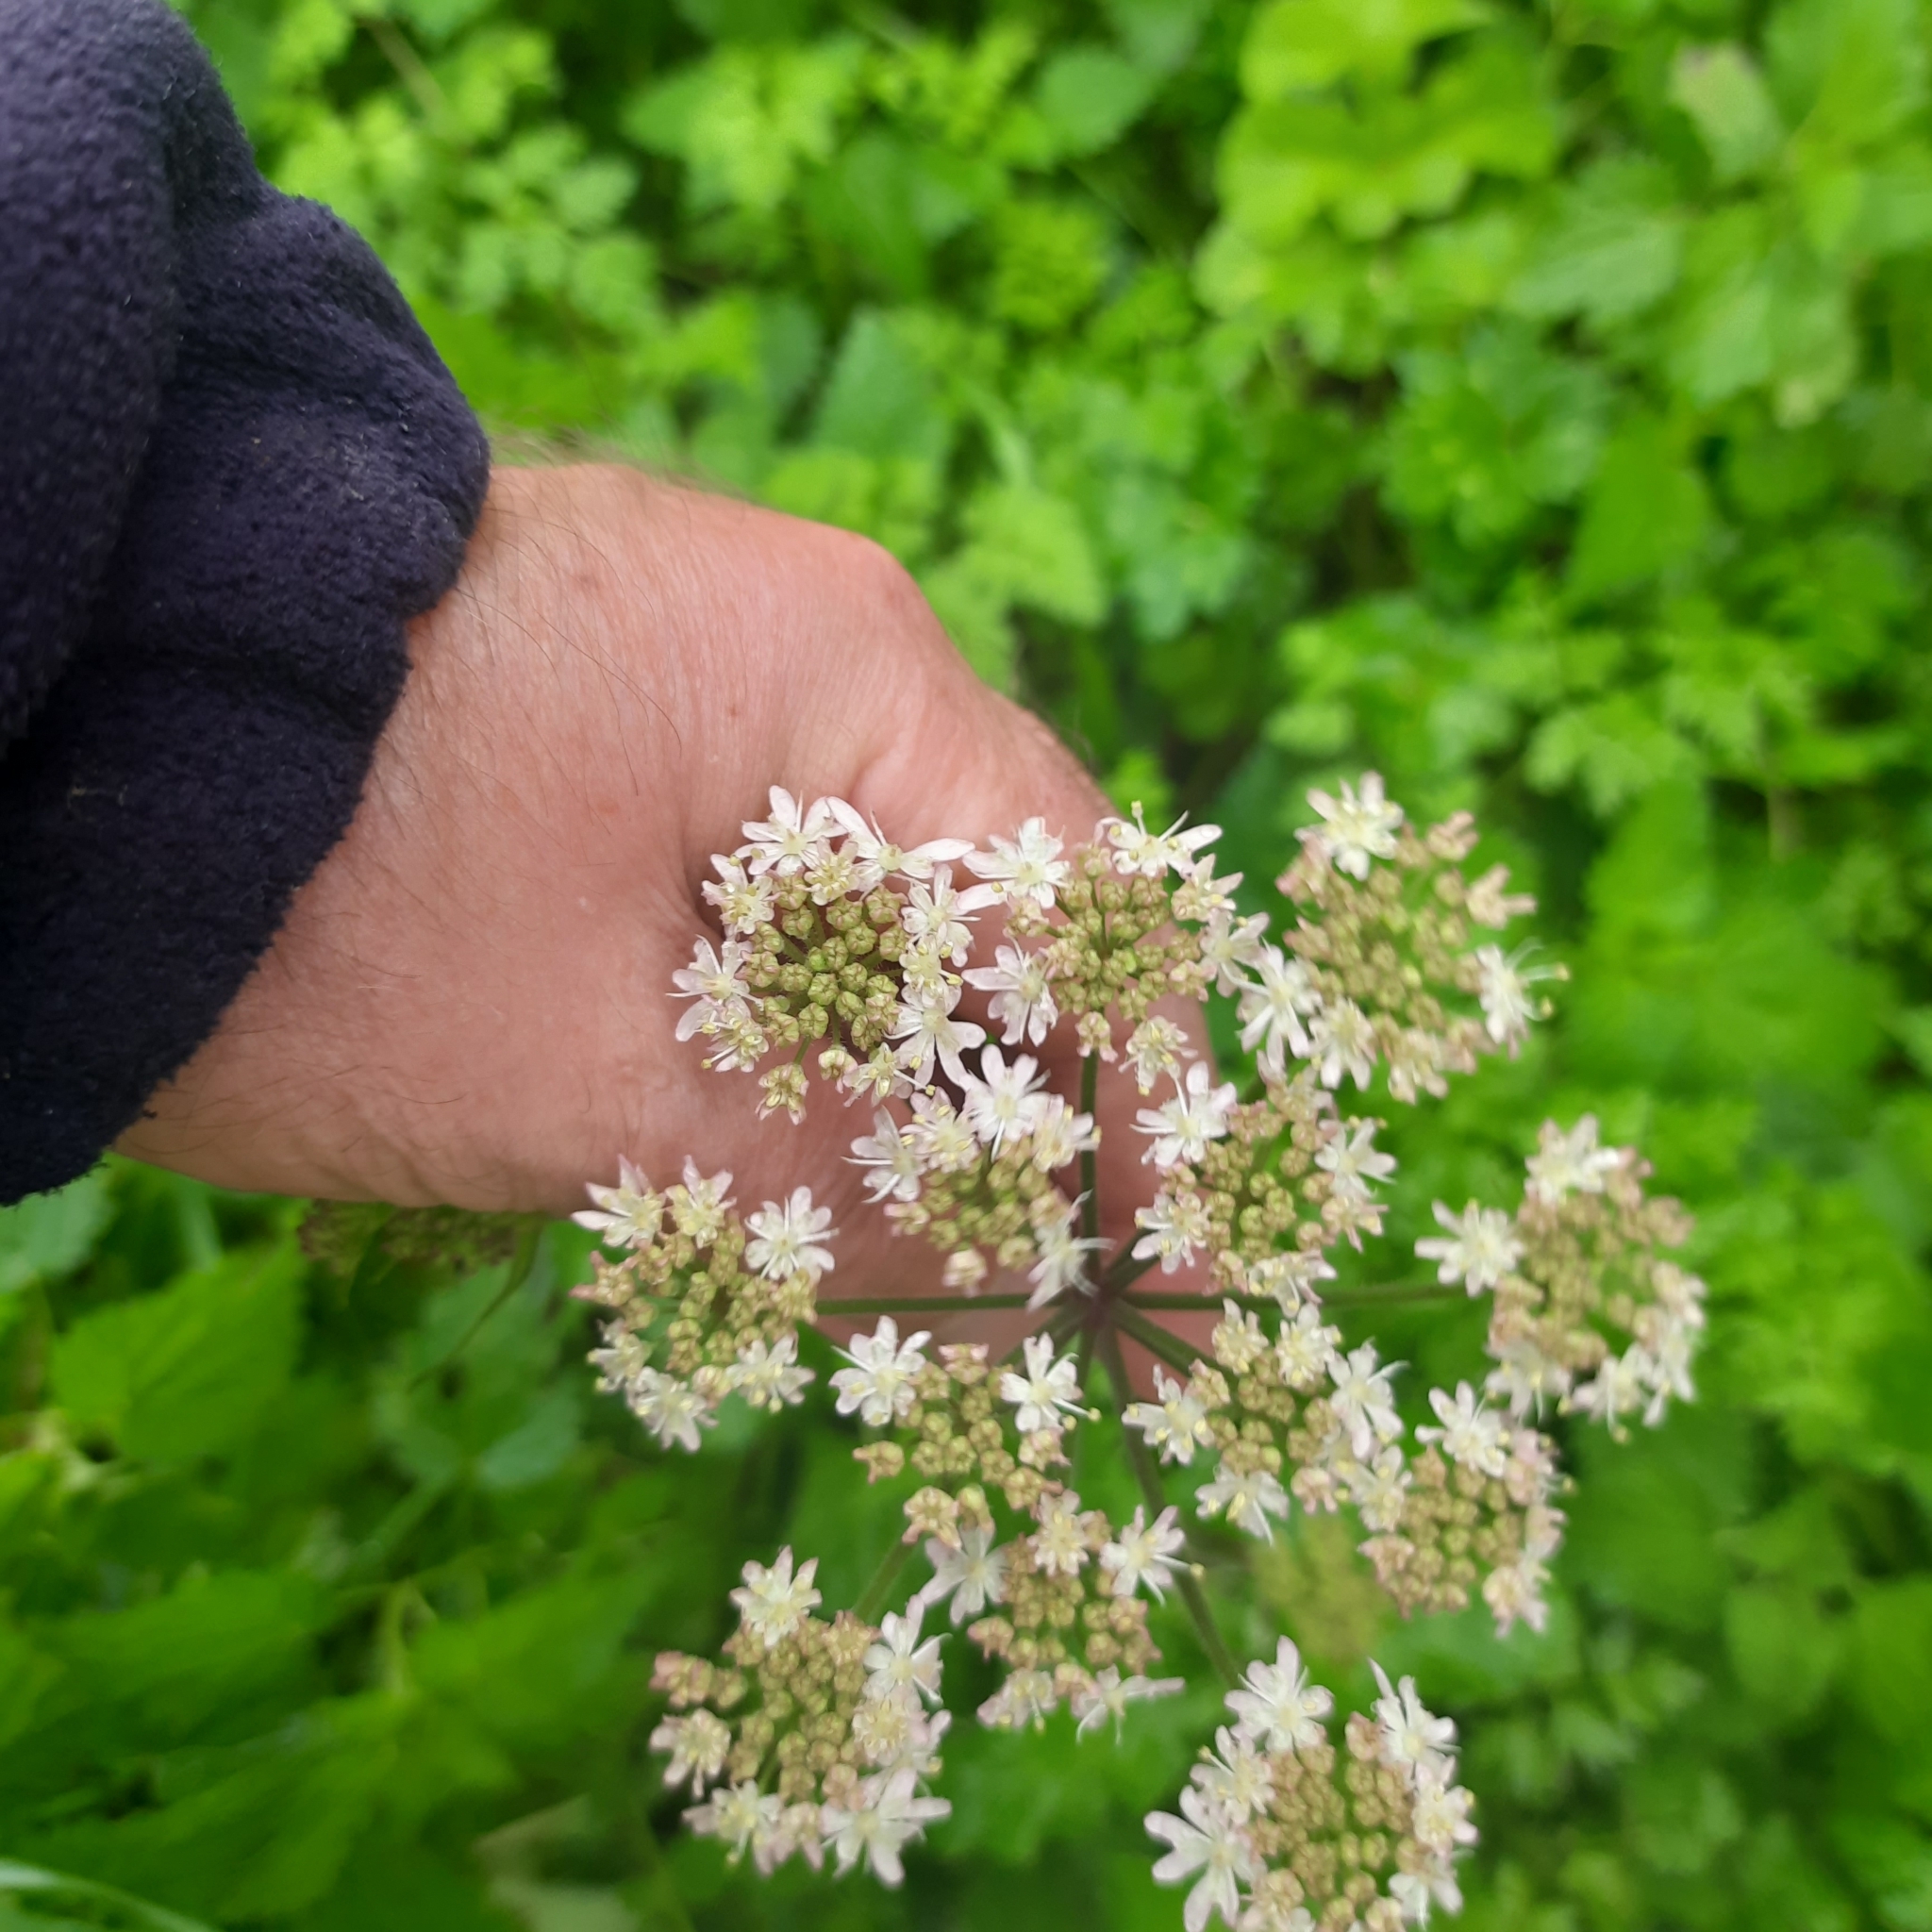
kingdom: Plantae
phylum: Tracheophyta
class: Magnoliopsida
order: Apiales
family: Apiaceae
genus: Heracleum
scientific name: Heracleum sphondylium
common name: Hogweed
